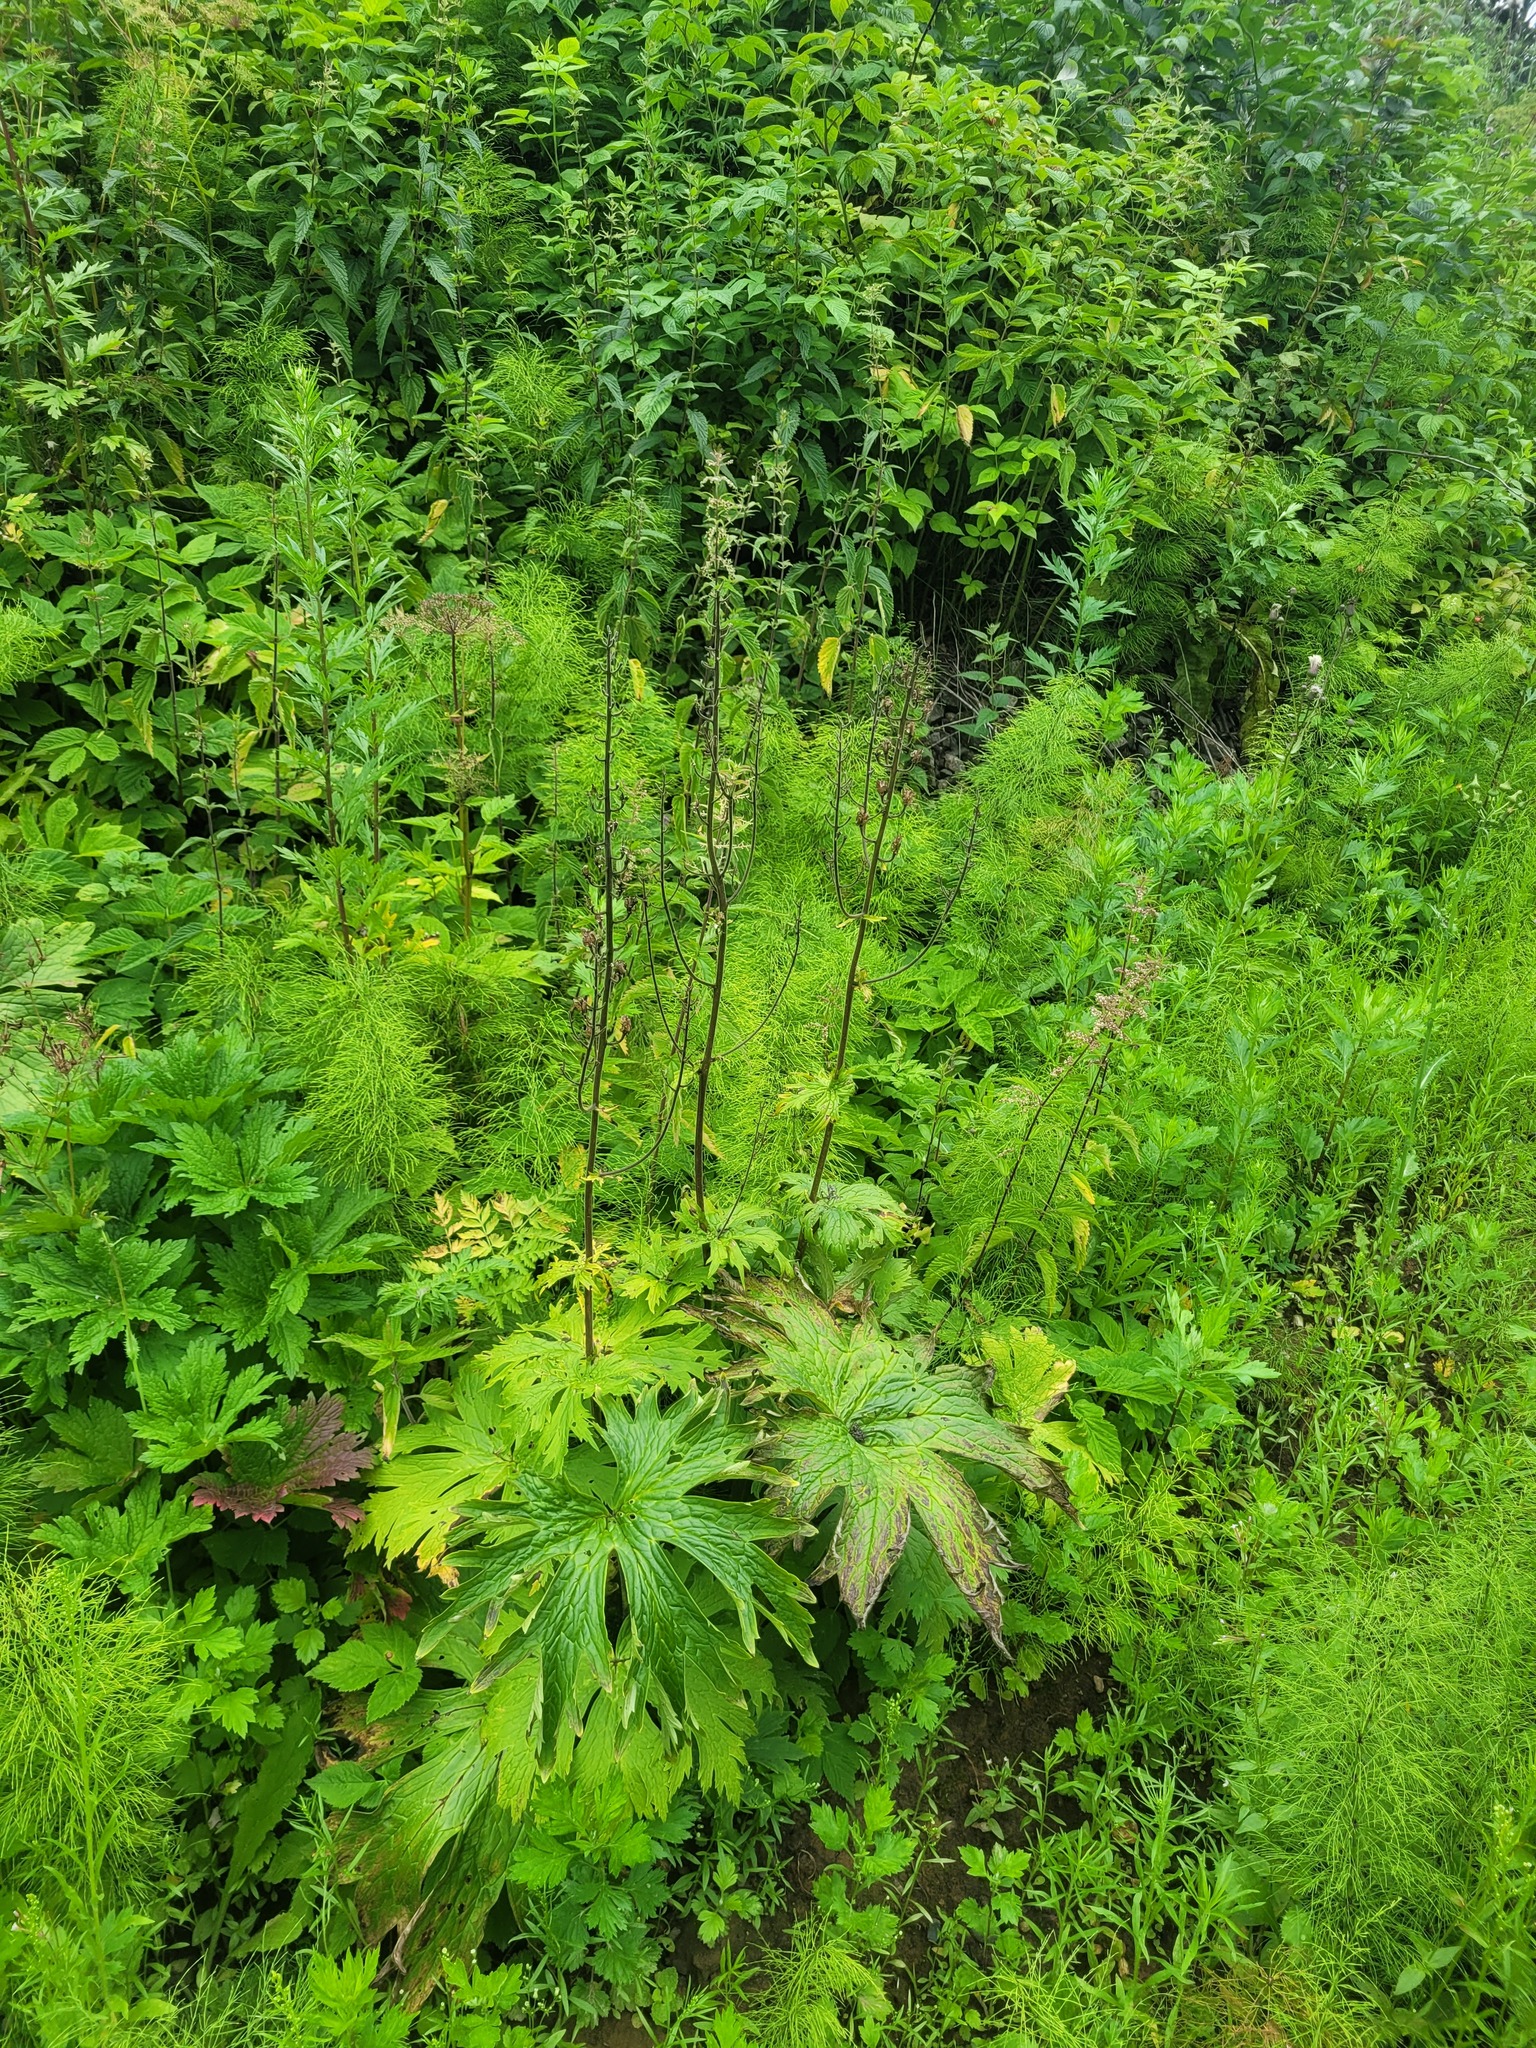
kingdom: Plantae
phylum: Tracheophyta
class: Magnoliopsida
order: Ranunculales
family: Ranunculaceae
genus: Aconitum
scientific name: Aconitum septentrionale
